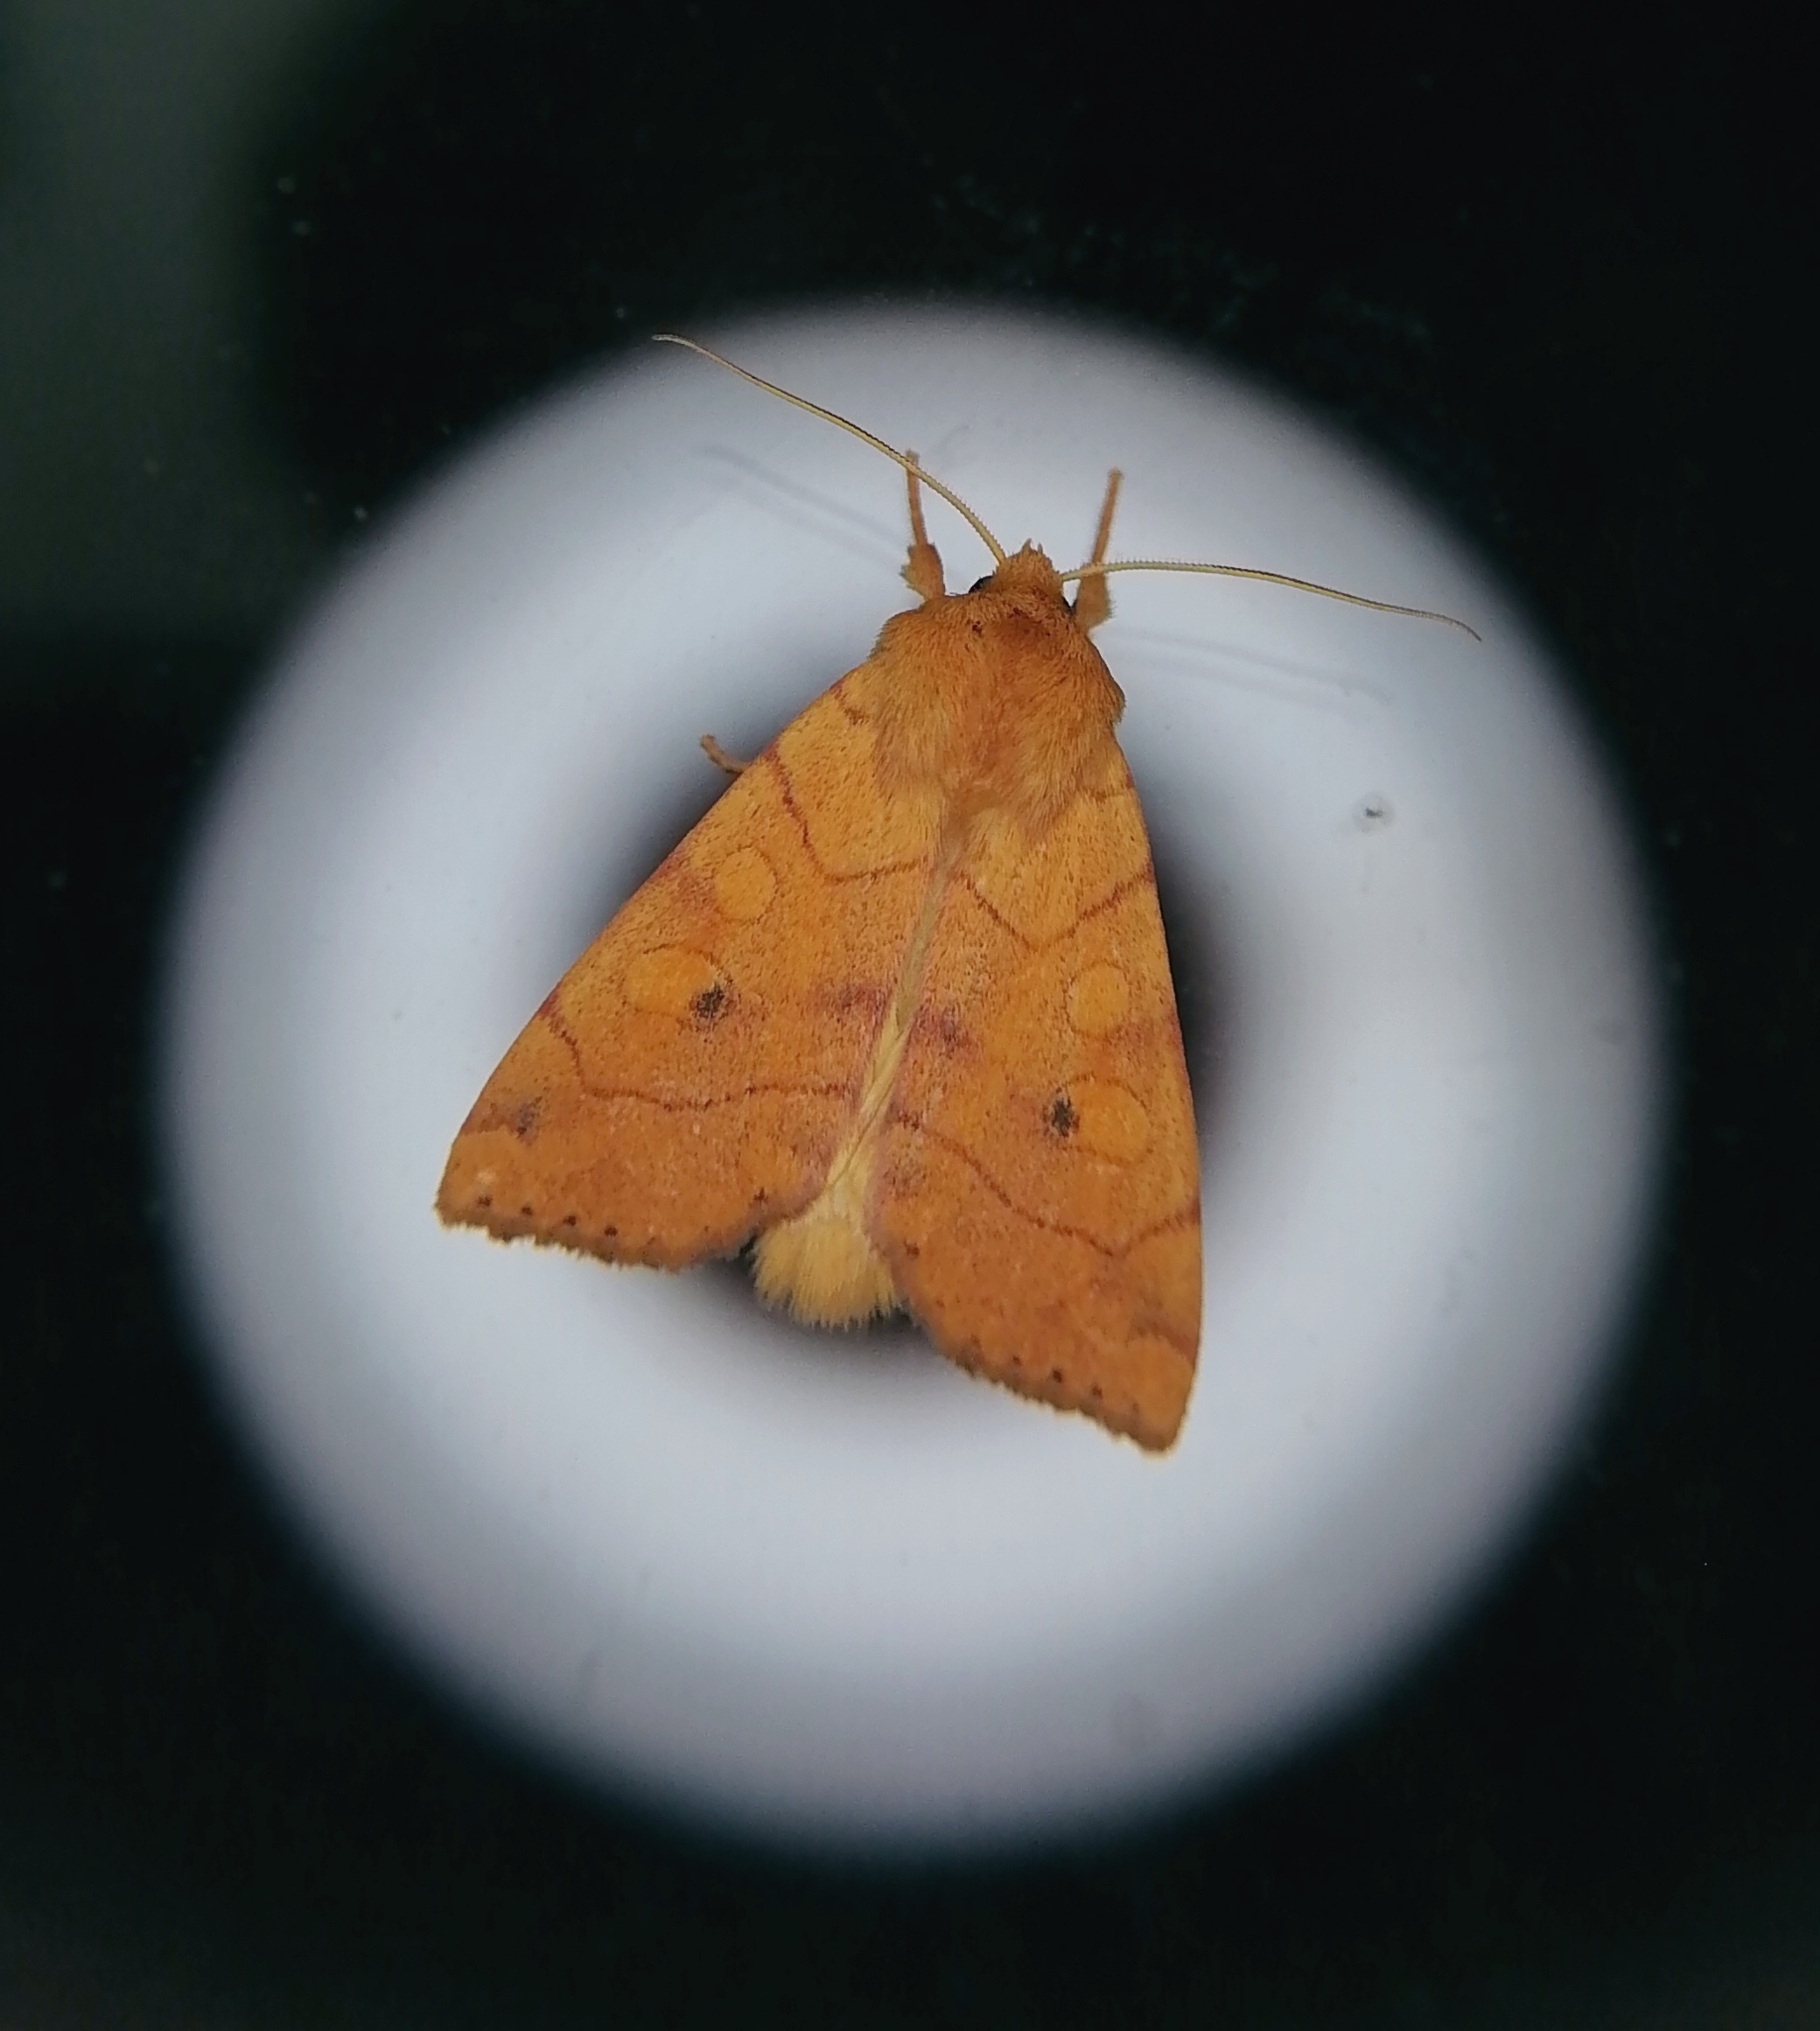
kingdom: Animalia
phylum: Arthropoda
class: Insecta
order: Lepidoptera
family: Noctuidae
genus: Enargia
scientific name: Enargia paleacea
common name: Angle-striped sallow
